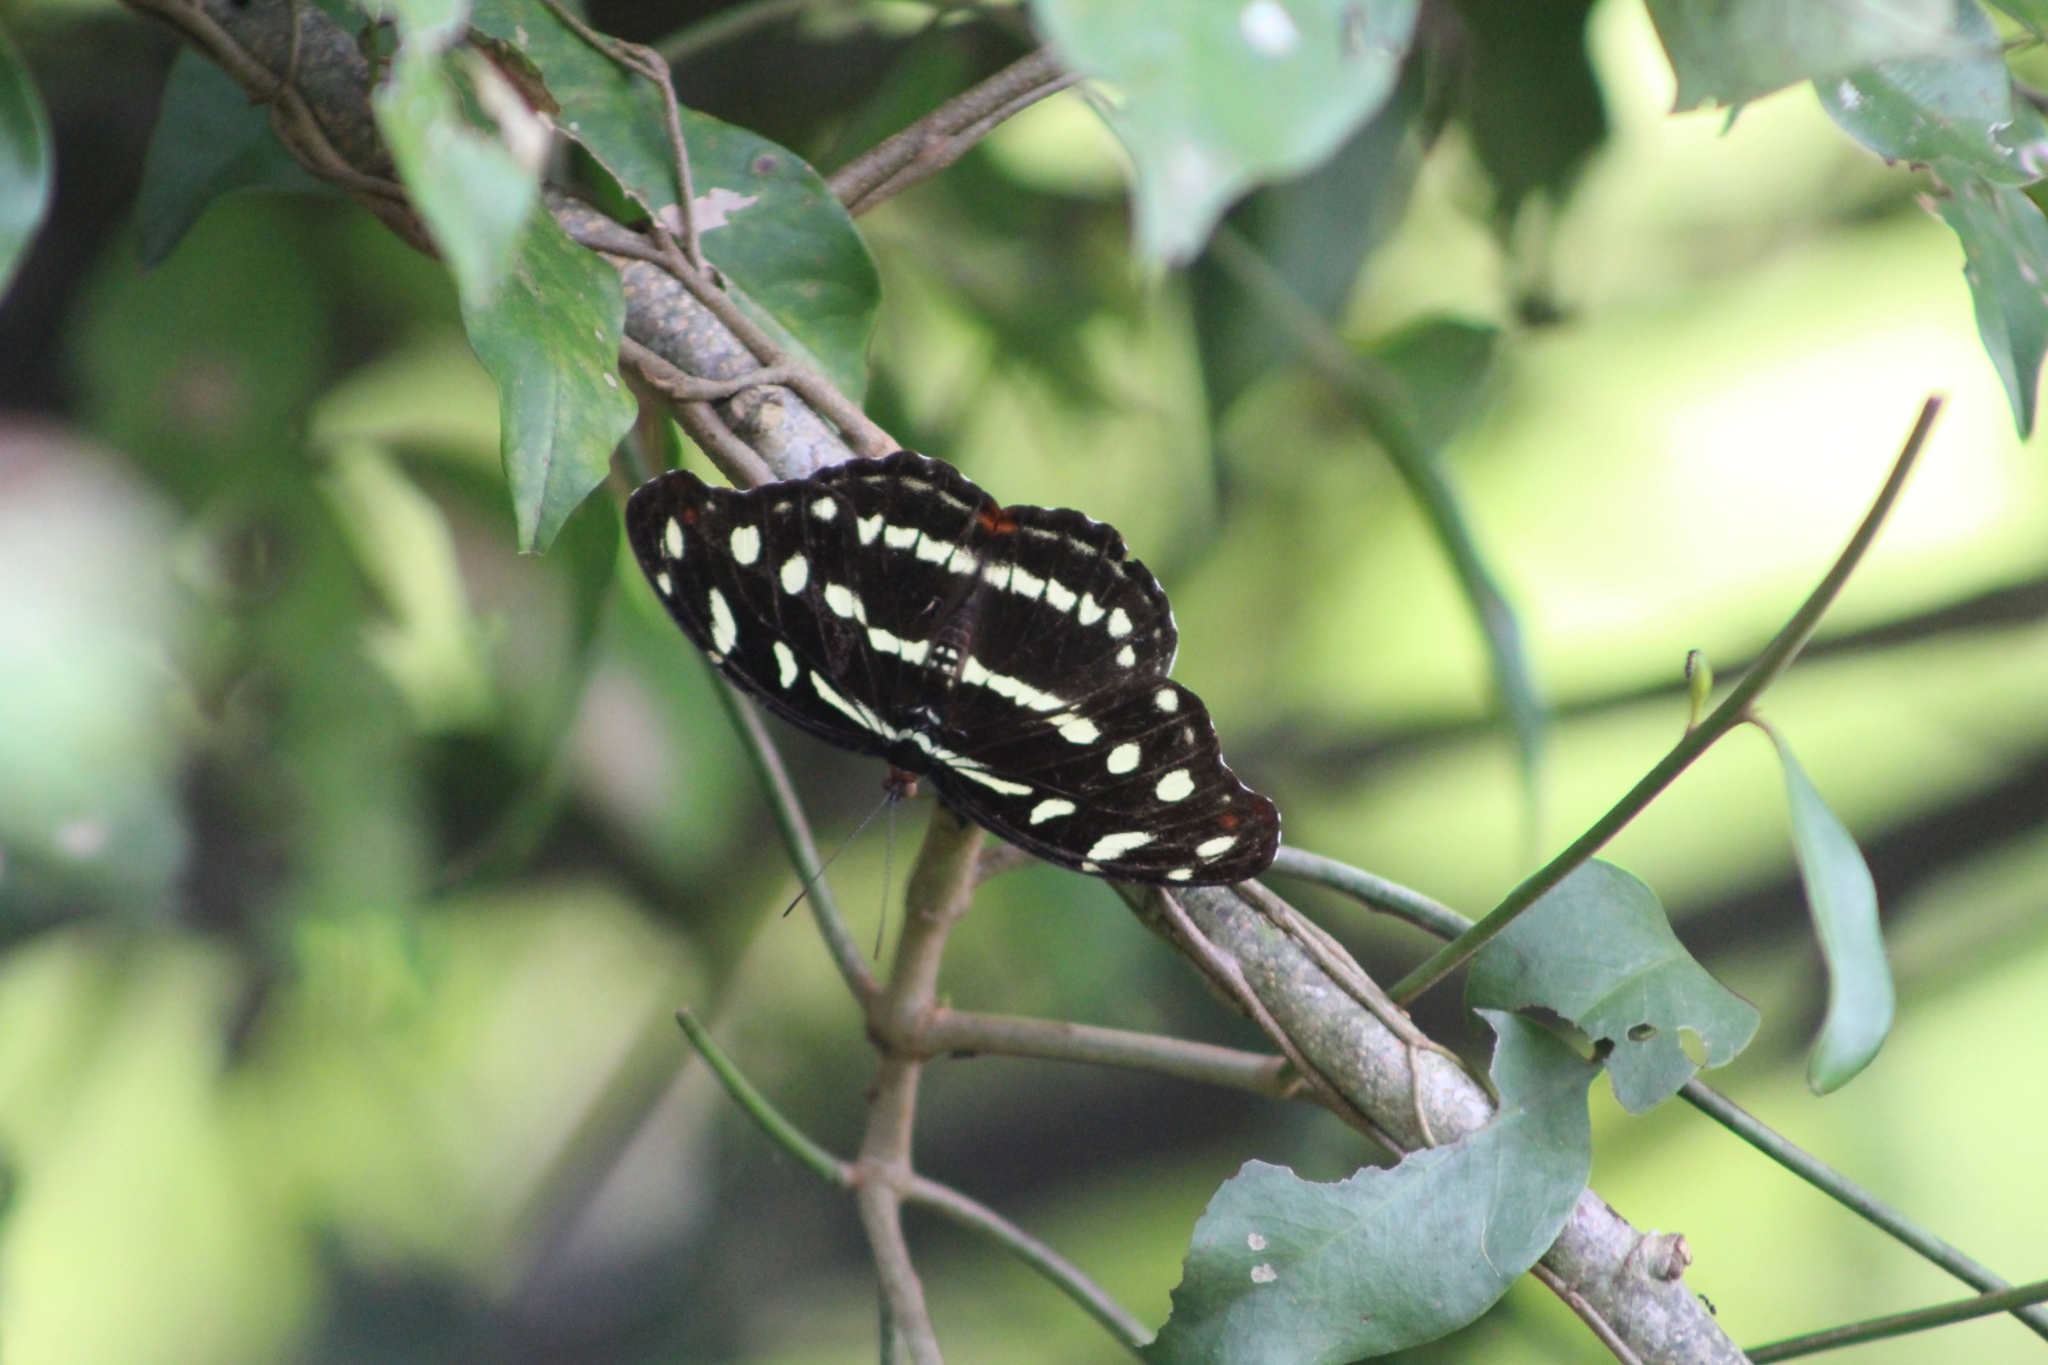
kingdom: Animalia
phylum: Arthropoda
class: Insecta
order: Lepidoptera
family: Nymphalidae
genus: Catonephele
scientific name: Catonephele acontius
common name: Unspotted firewing
